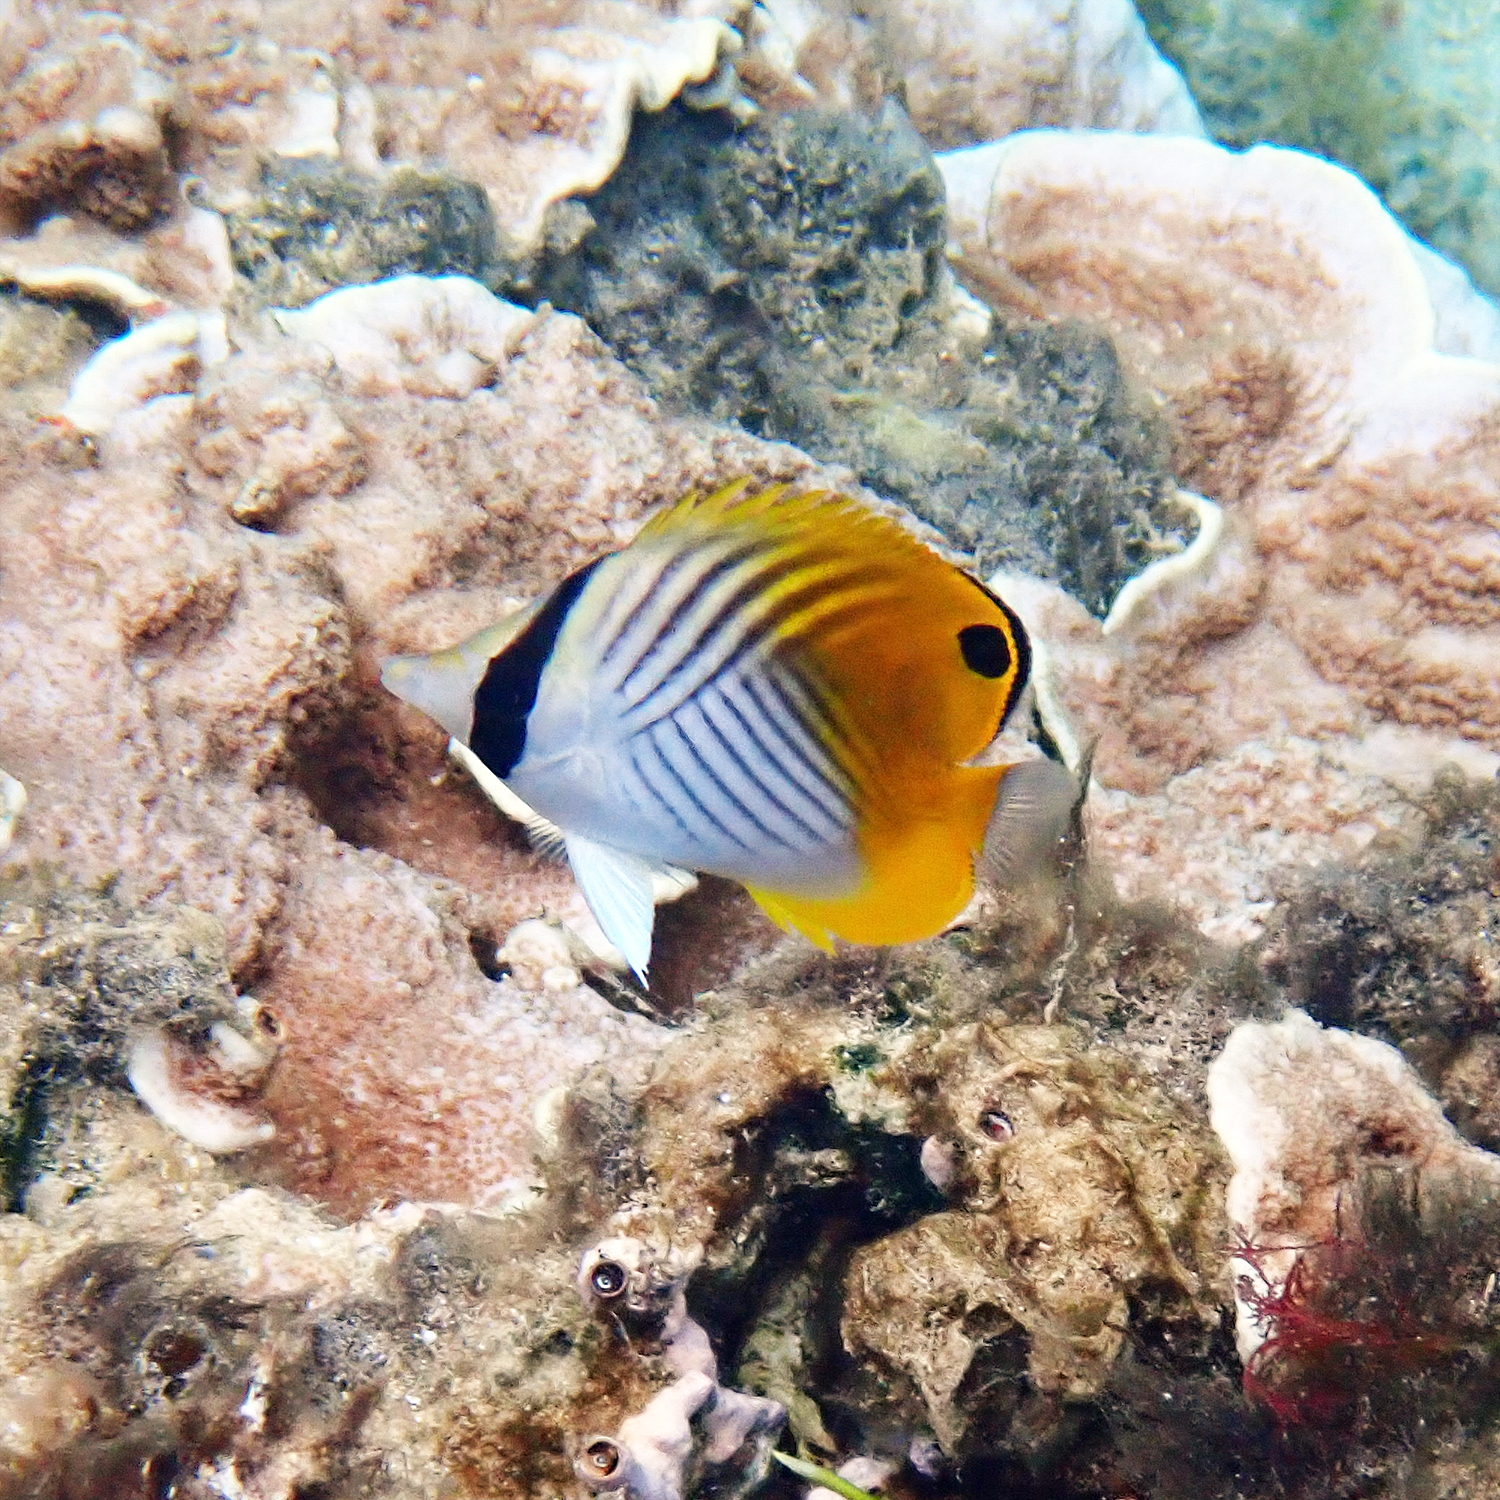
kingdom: Animalia
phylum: Chordata
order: Perciformes
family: Chaetodontidae
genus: Chaetodon
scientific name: Chaetodon auriga
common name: Threadfin butterflyfish
